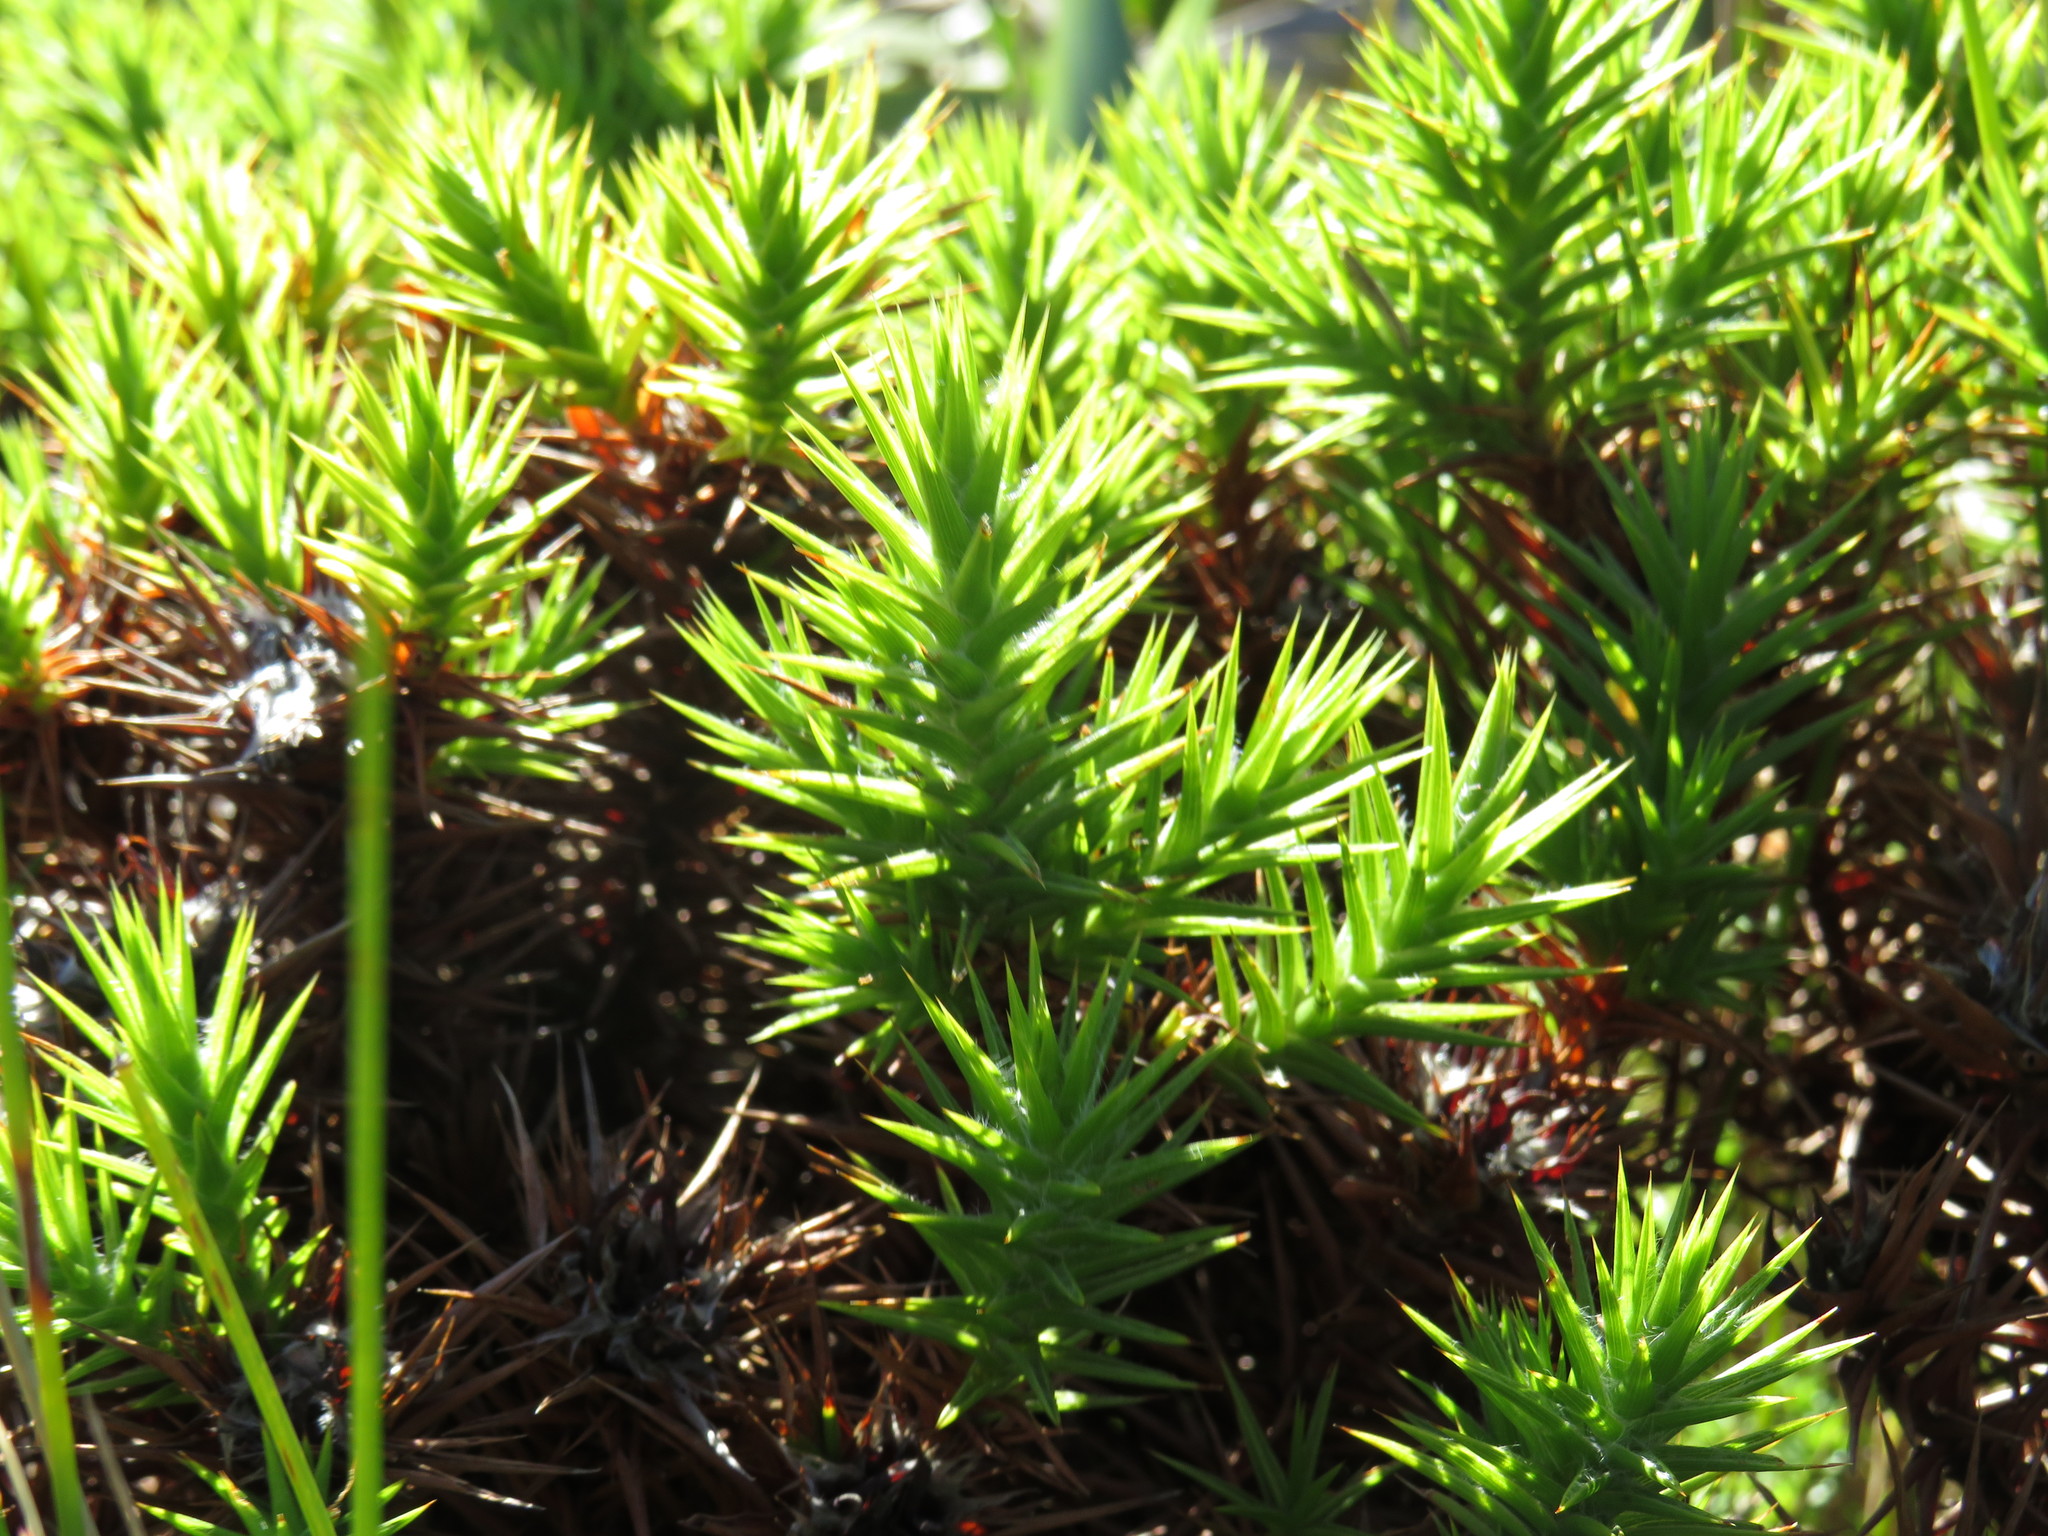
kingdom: Plantae
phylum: Tracheophyta
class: Magnoliopsida
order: Fabales
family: Fabaceae
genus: Aspalathus
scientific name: Aspalathus barbata
